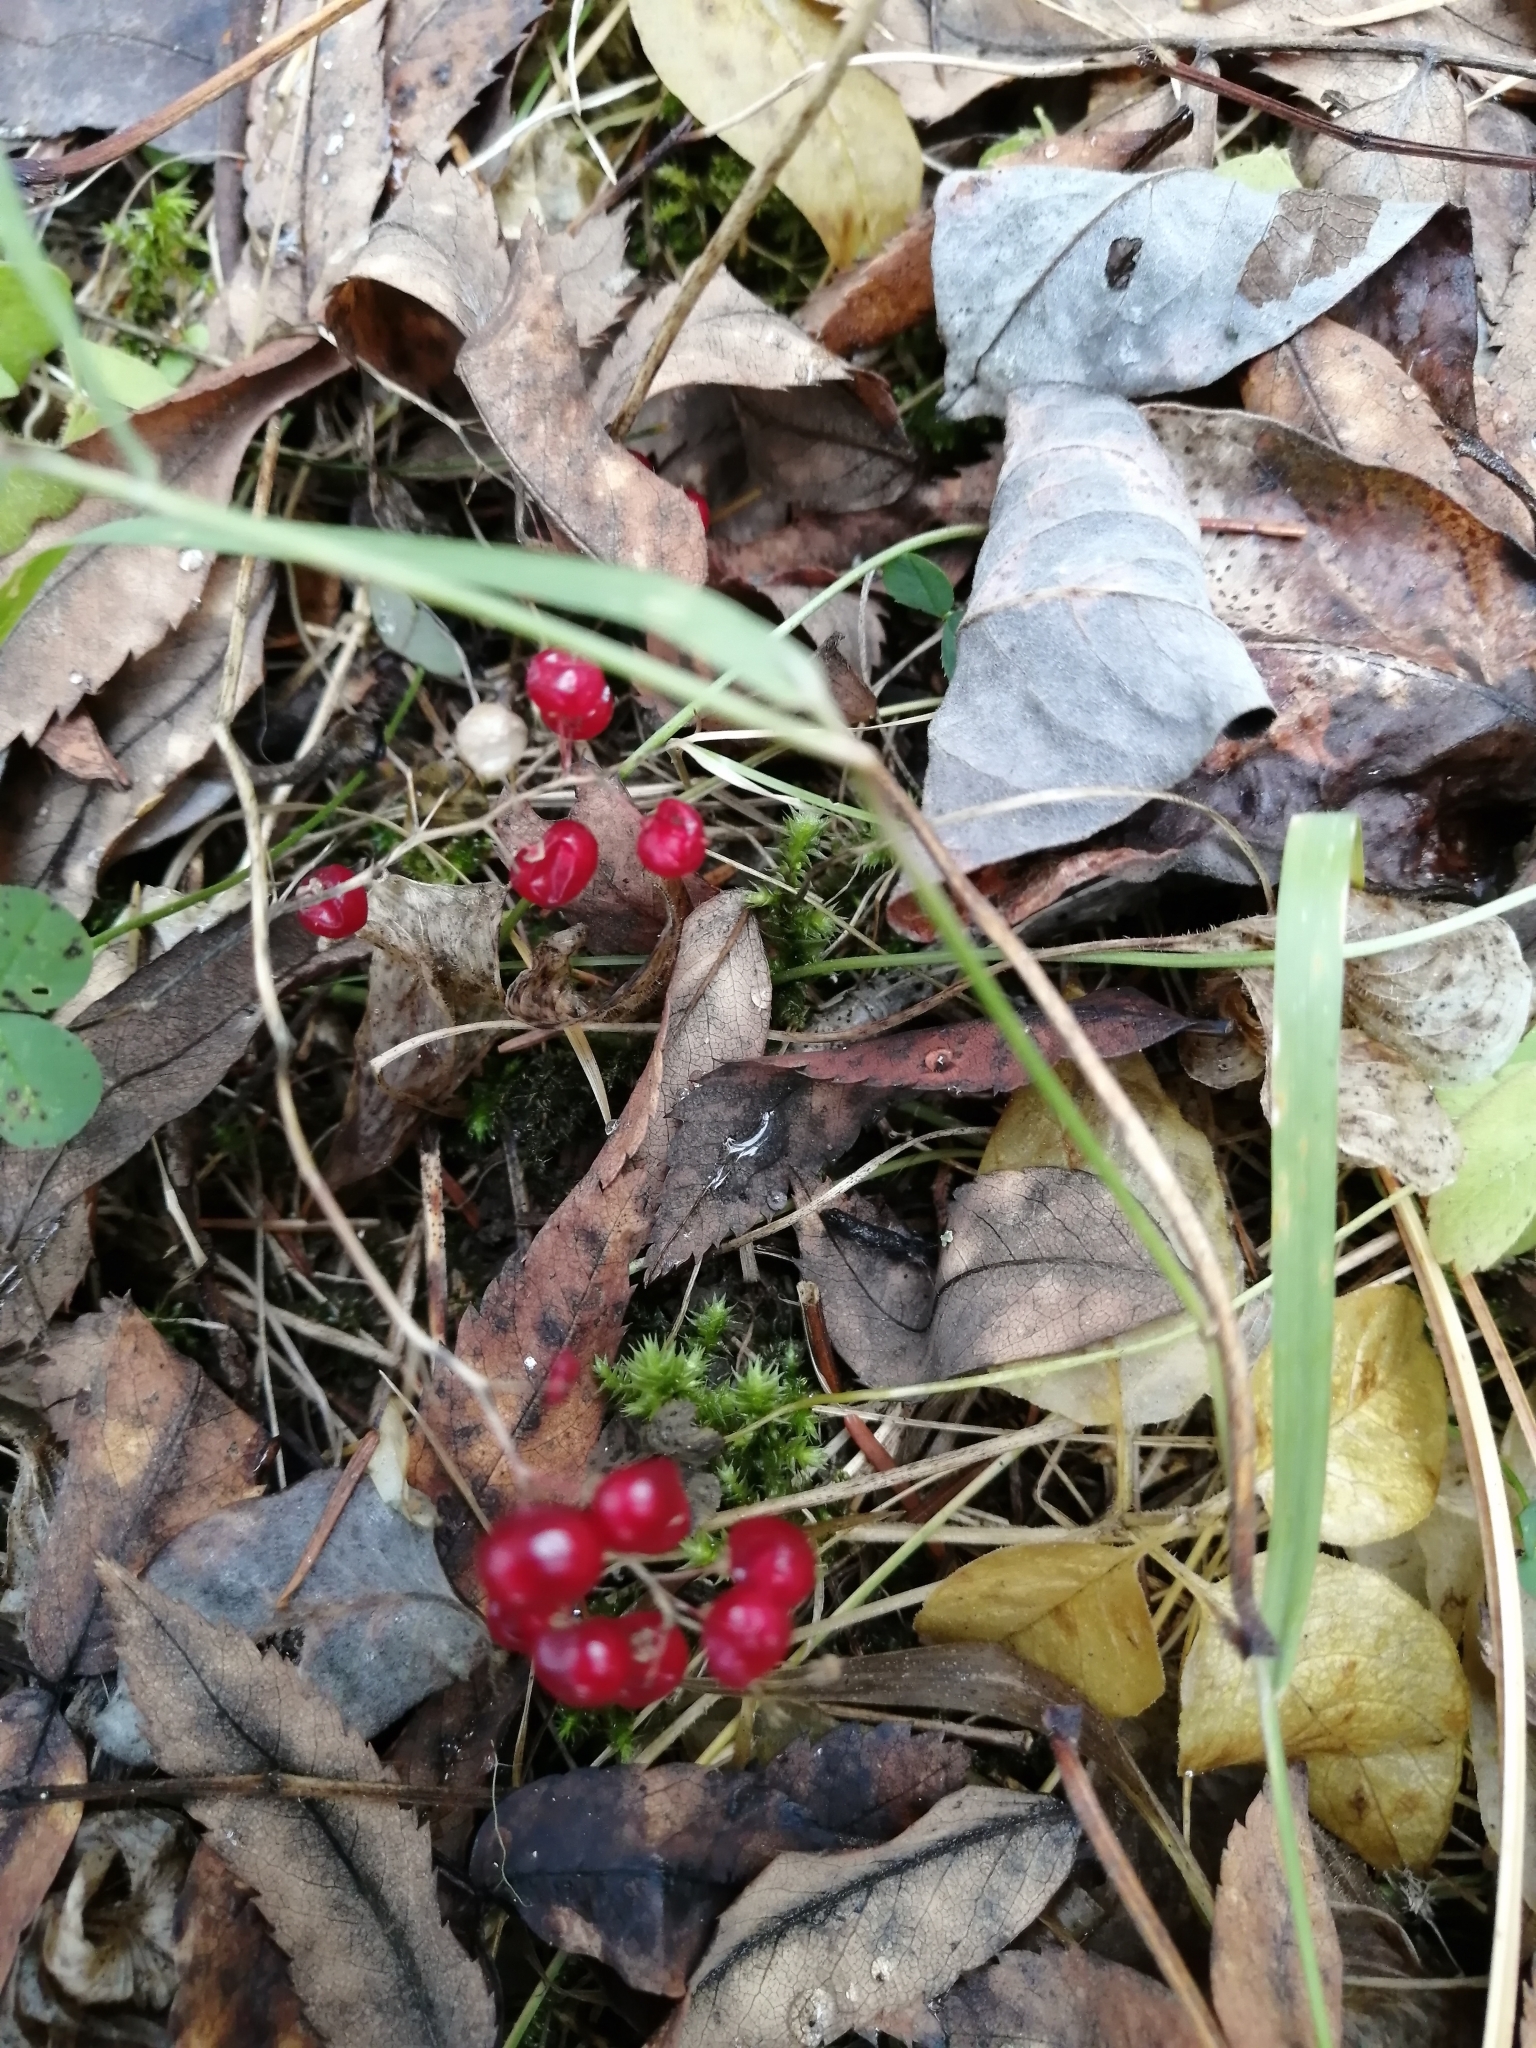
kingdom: Plantae
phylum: Tracheophyta
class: Liliopsida
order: Asparagales
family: Asparagaceae
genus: Maianthemum
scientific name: Maianthemum bifolium
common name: May lily
